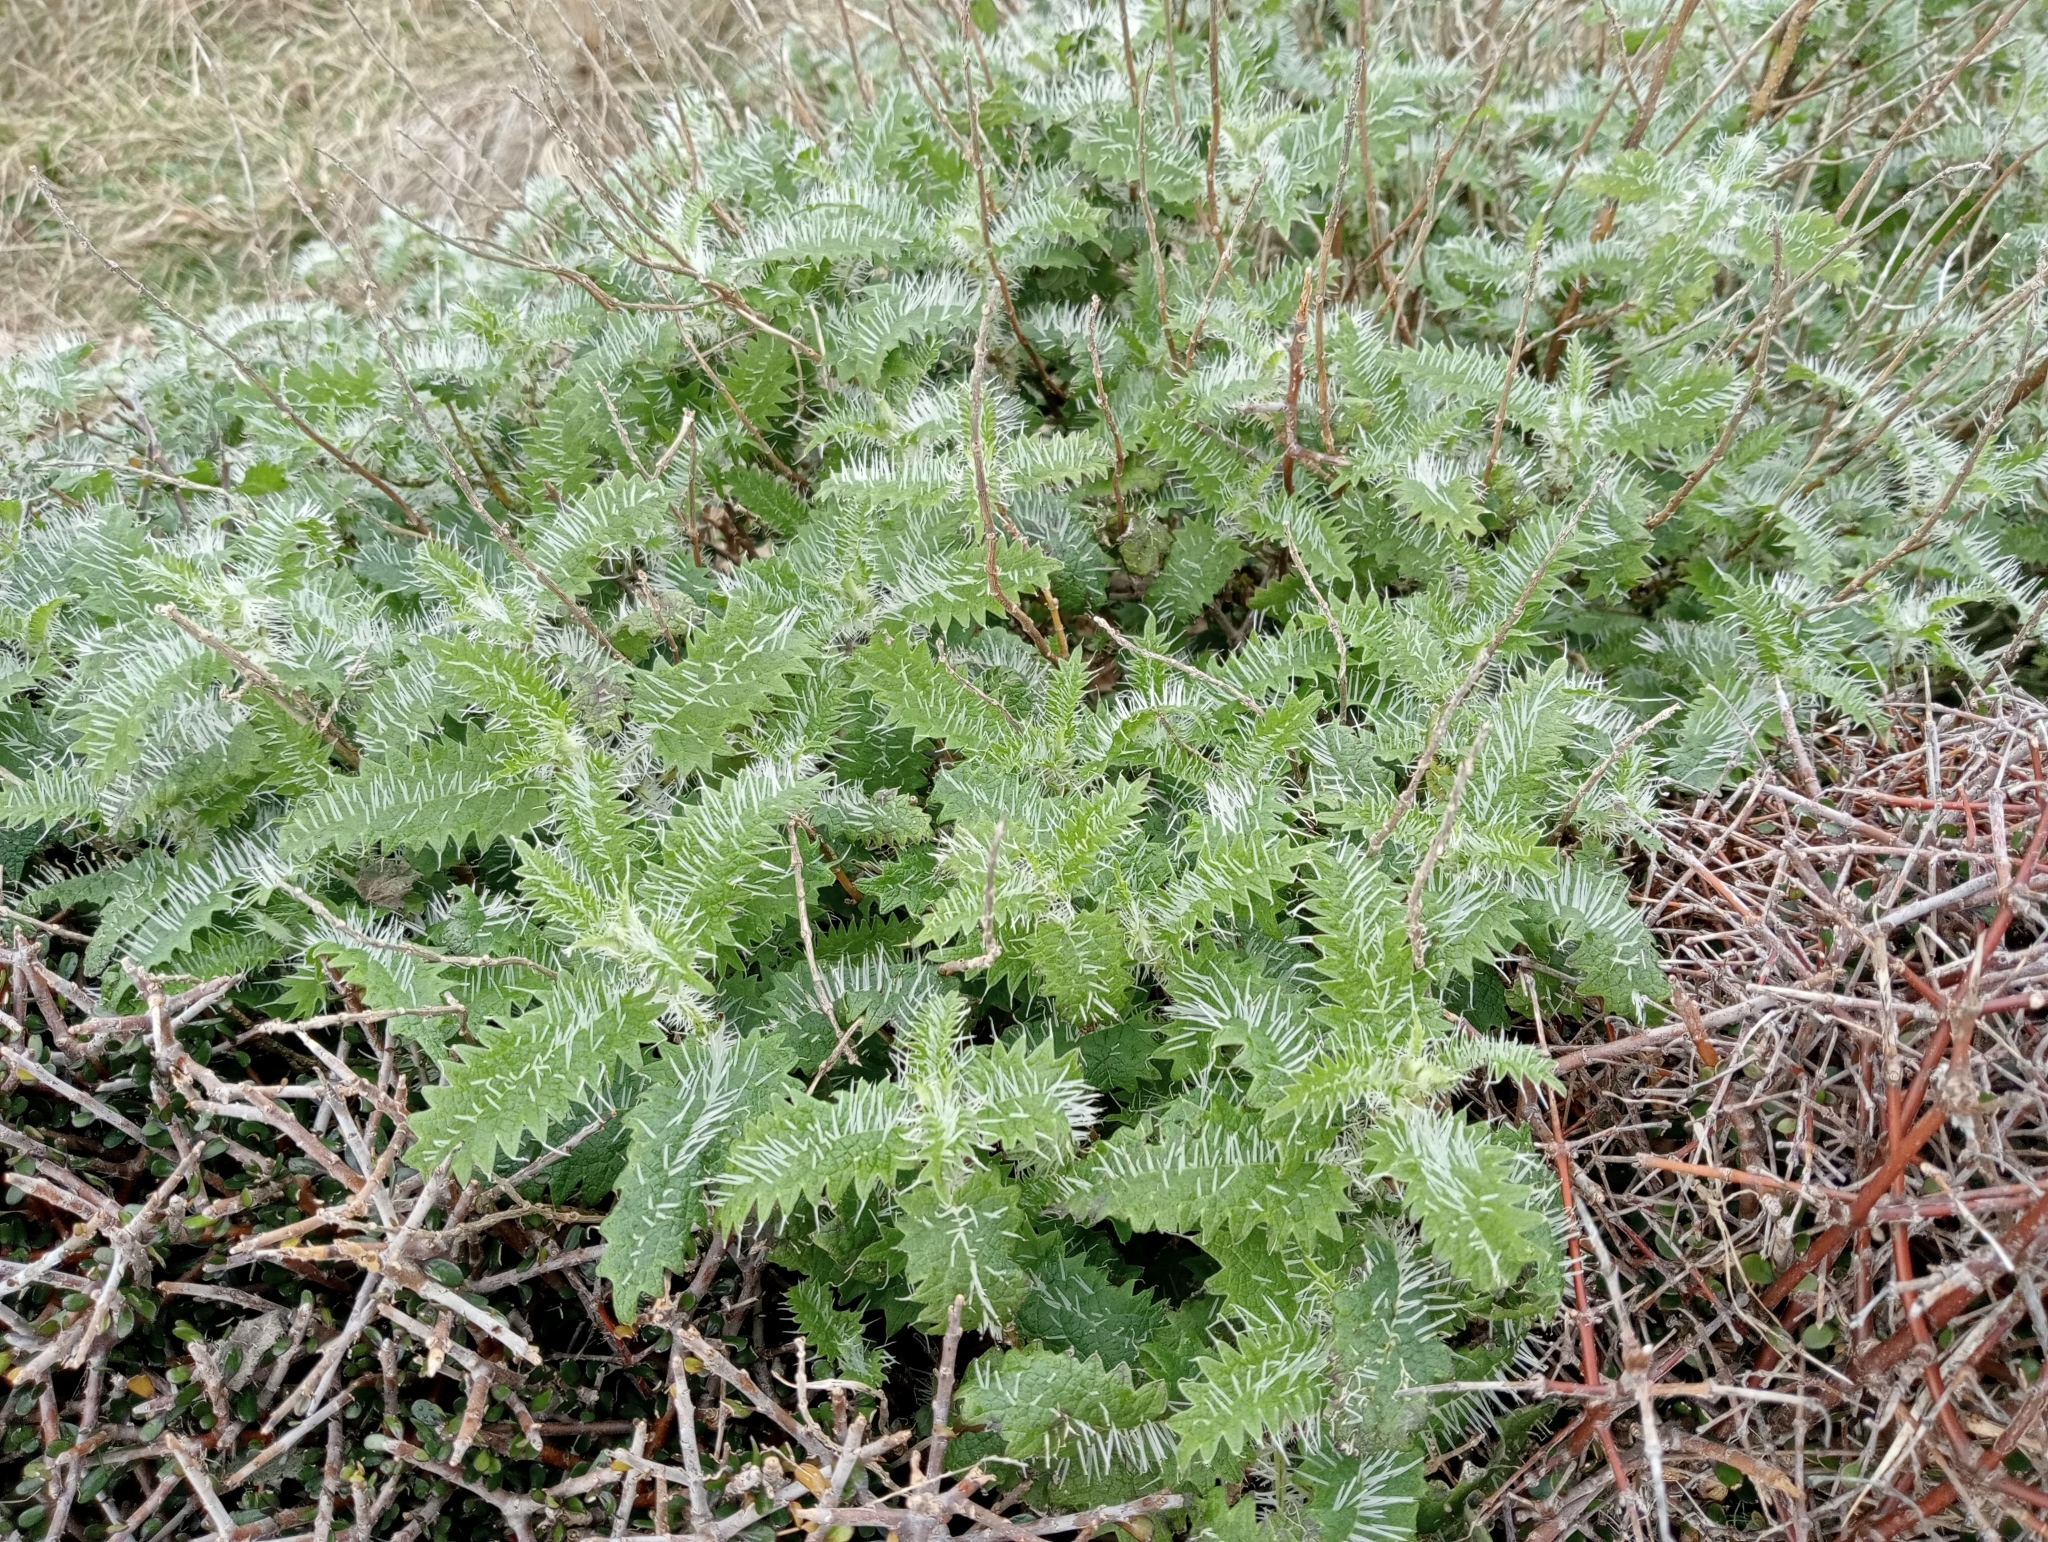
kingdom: Plantae
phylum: Tracheophyta
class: Magnoliopsida
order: Rosales
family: Urticaceae
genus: Urtica
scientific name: Urtica ferox
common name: Tree nettle
